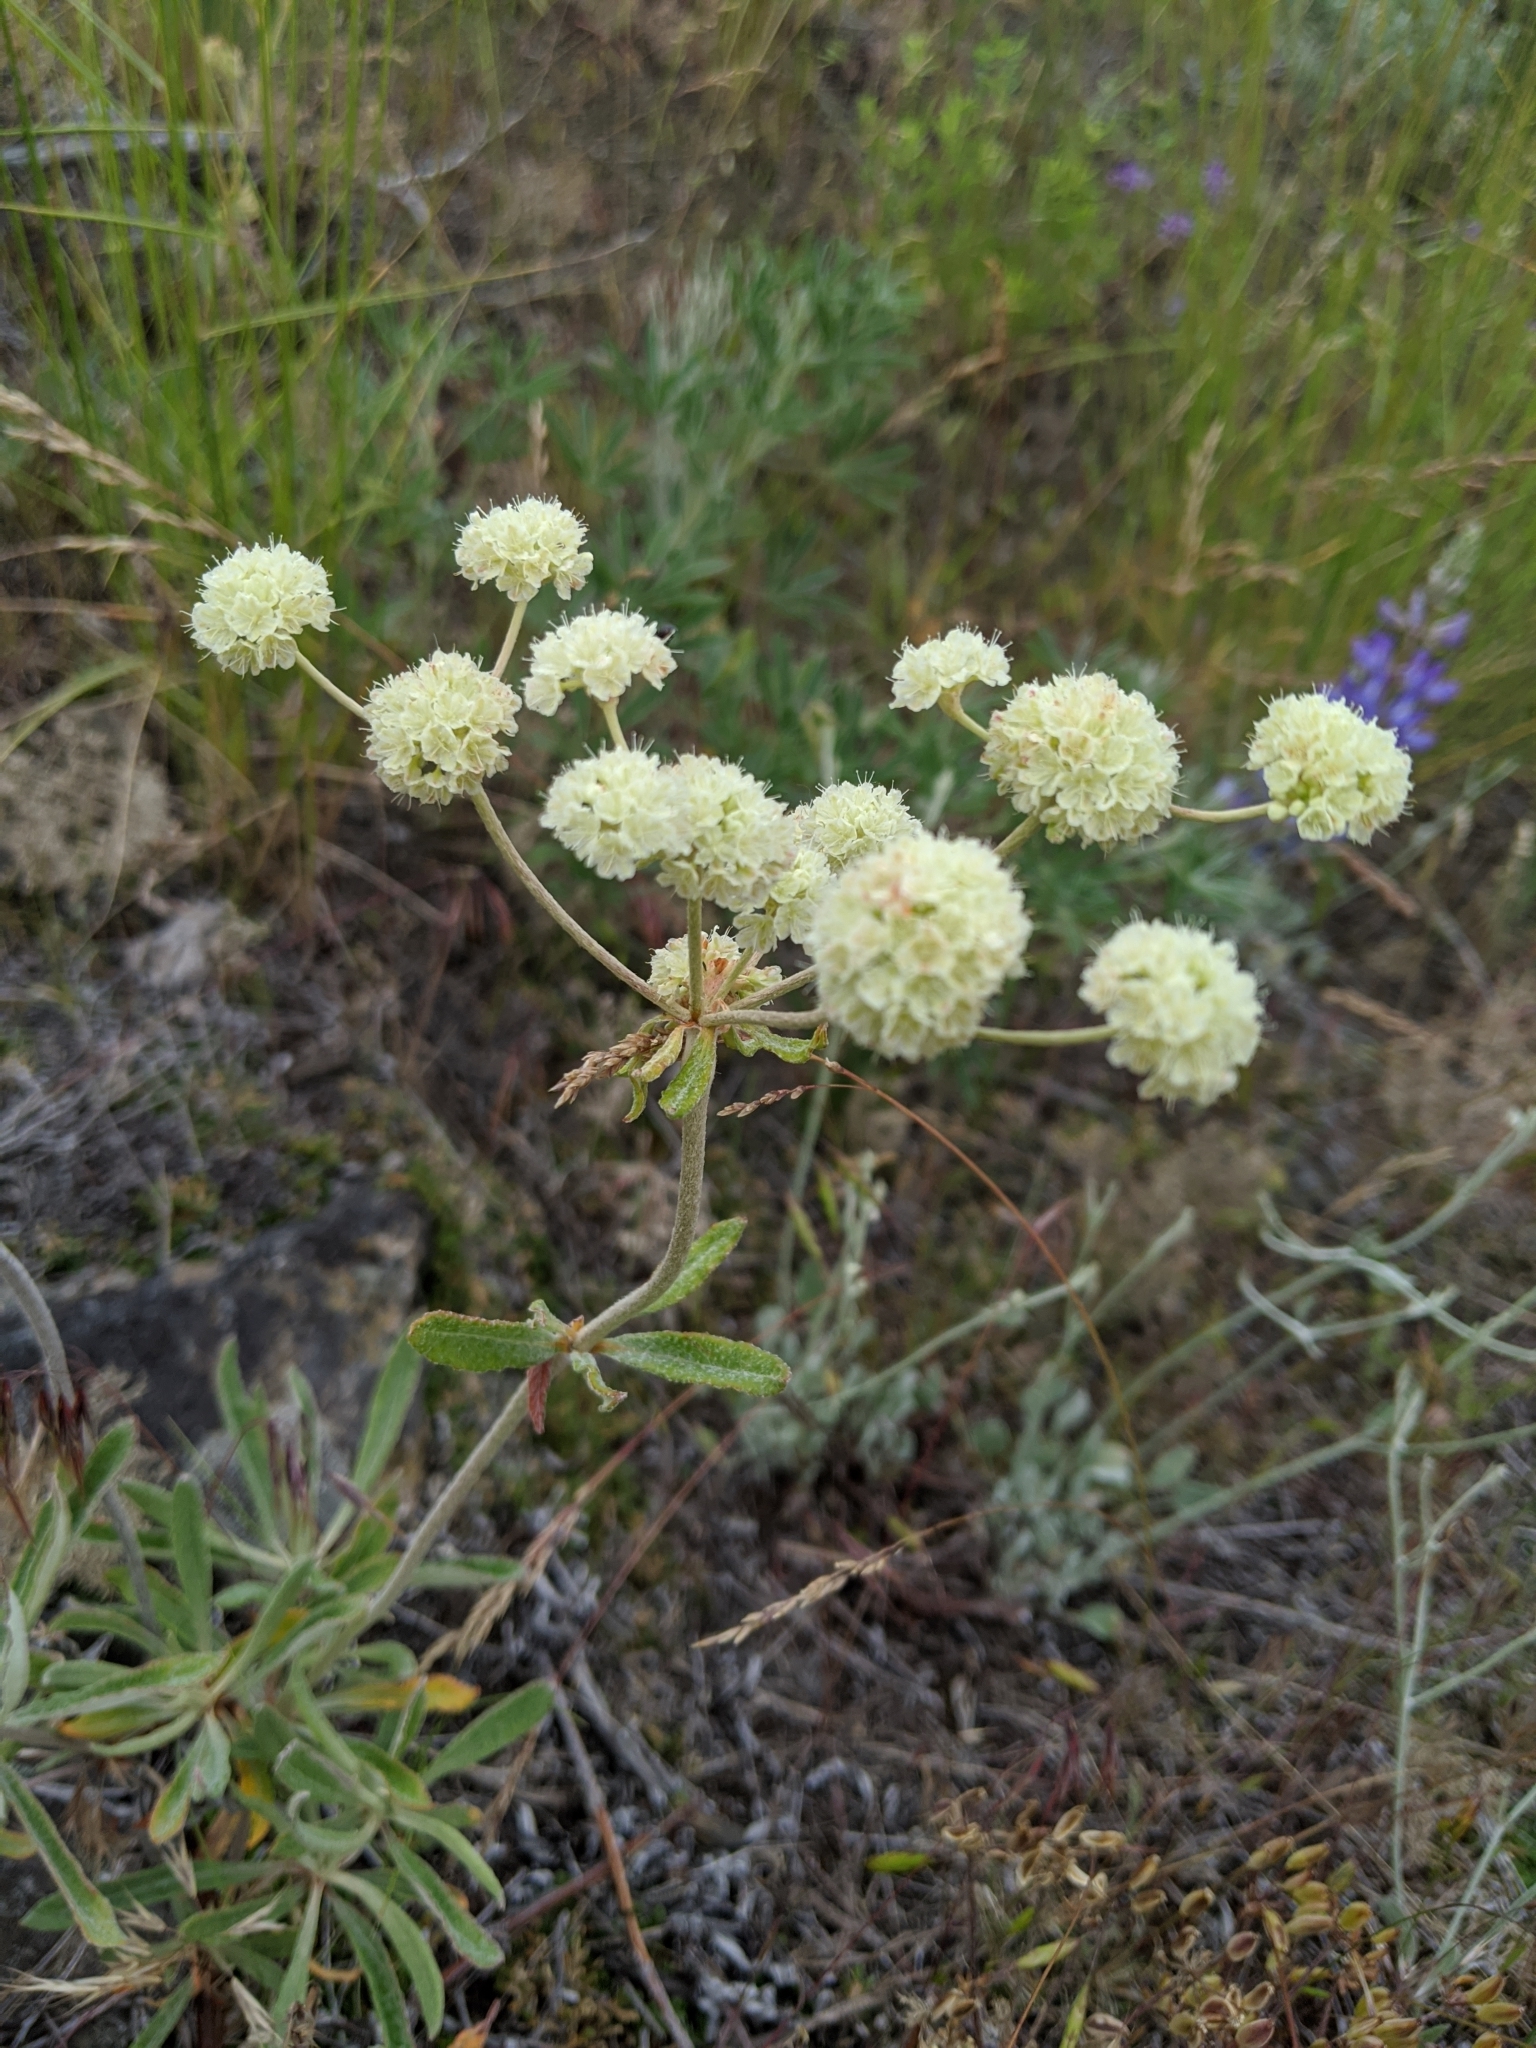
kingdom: Plantae
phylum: Tracheophyta
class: Magnoliopsida
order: Caryophyllales
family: Polygonaceae
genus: Eriogonum
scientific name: Eriogonum heracleoides
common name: Wyeth's buckwheat
